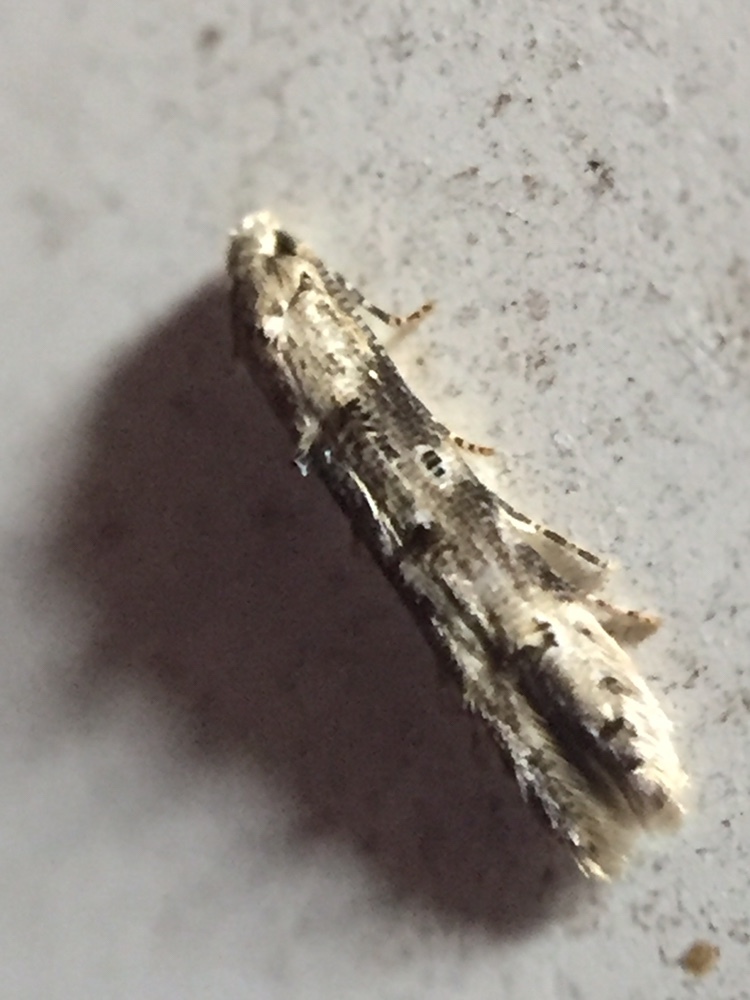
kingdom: Animalia
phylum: Arthropoda
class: Insecta
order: Lepidoptera
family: Elachistidae
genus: Microcolona
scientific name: Microcolona limodes
